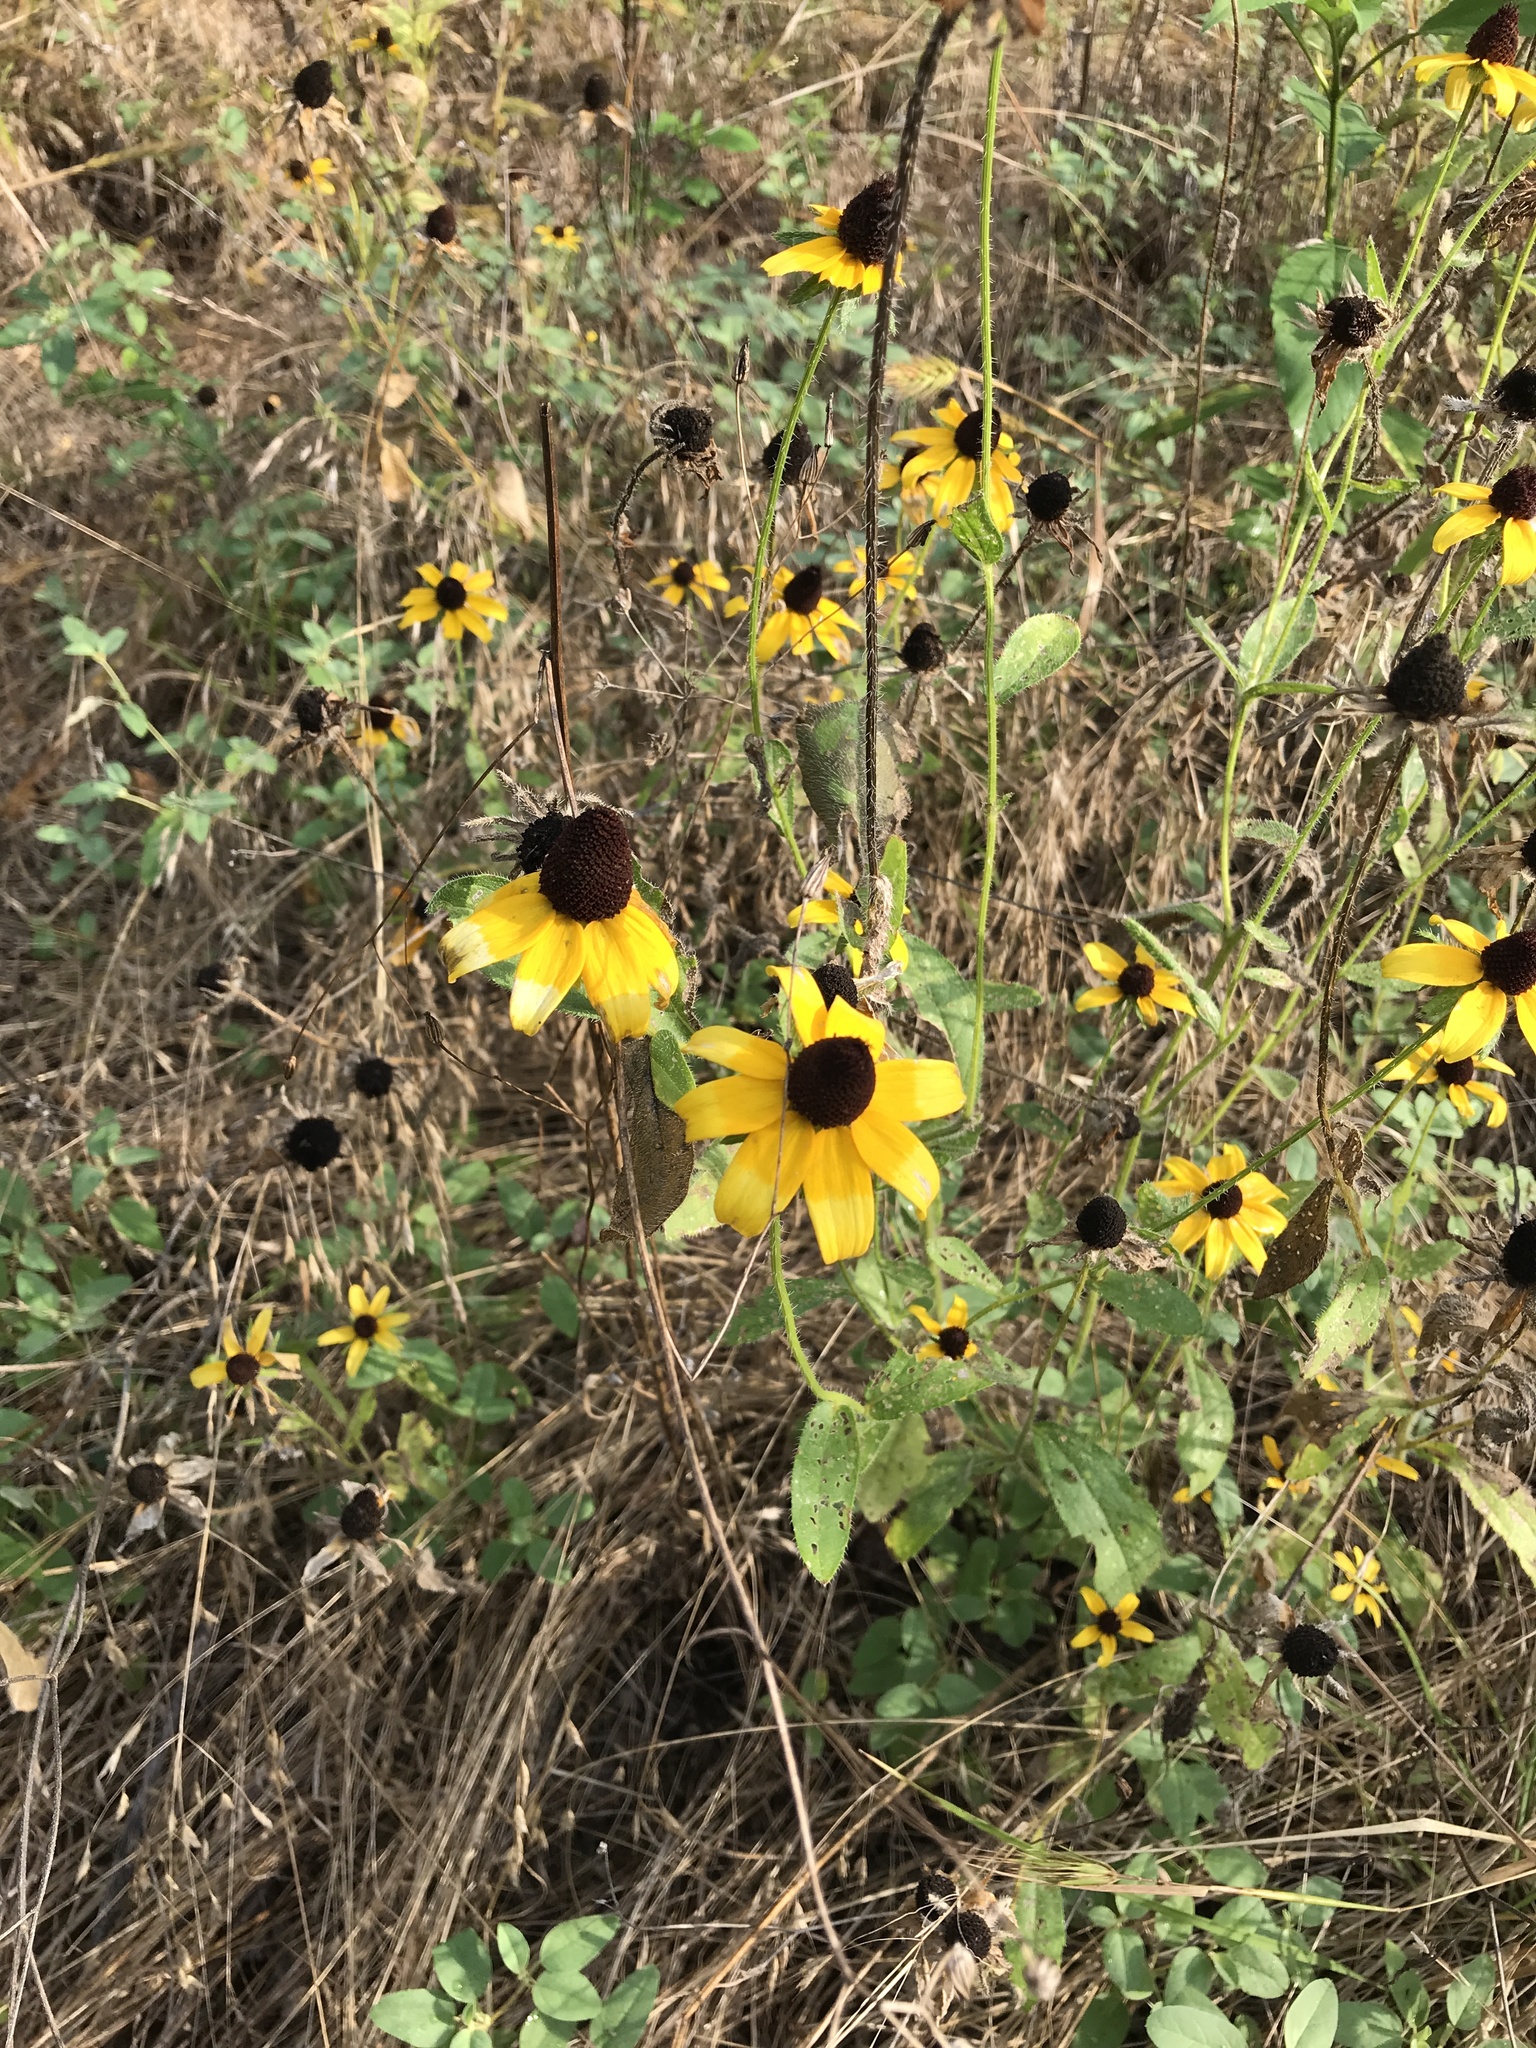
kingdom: Plantae
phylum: Tracheophyta
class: Magnoliopsida
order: Asterales
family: Asteraceae
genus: Rudbeckia
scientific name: Rudbeckia hirta
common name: Black-eyed-susan
